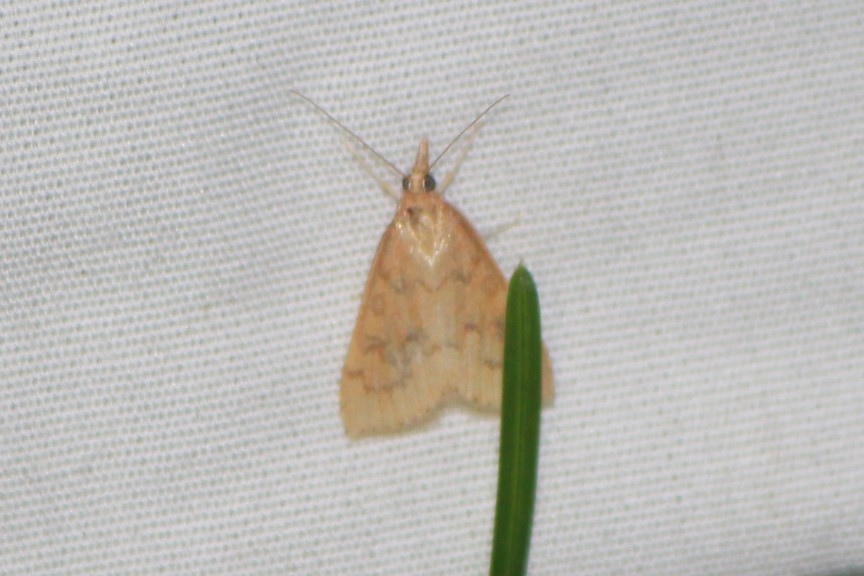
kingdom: Animalia
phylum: Arthropoda
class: Insecta
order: Lepidoptera
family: Crambidae
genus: Udea
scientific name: Udea rubigalis
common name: Celery leaftier moth
